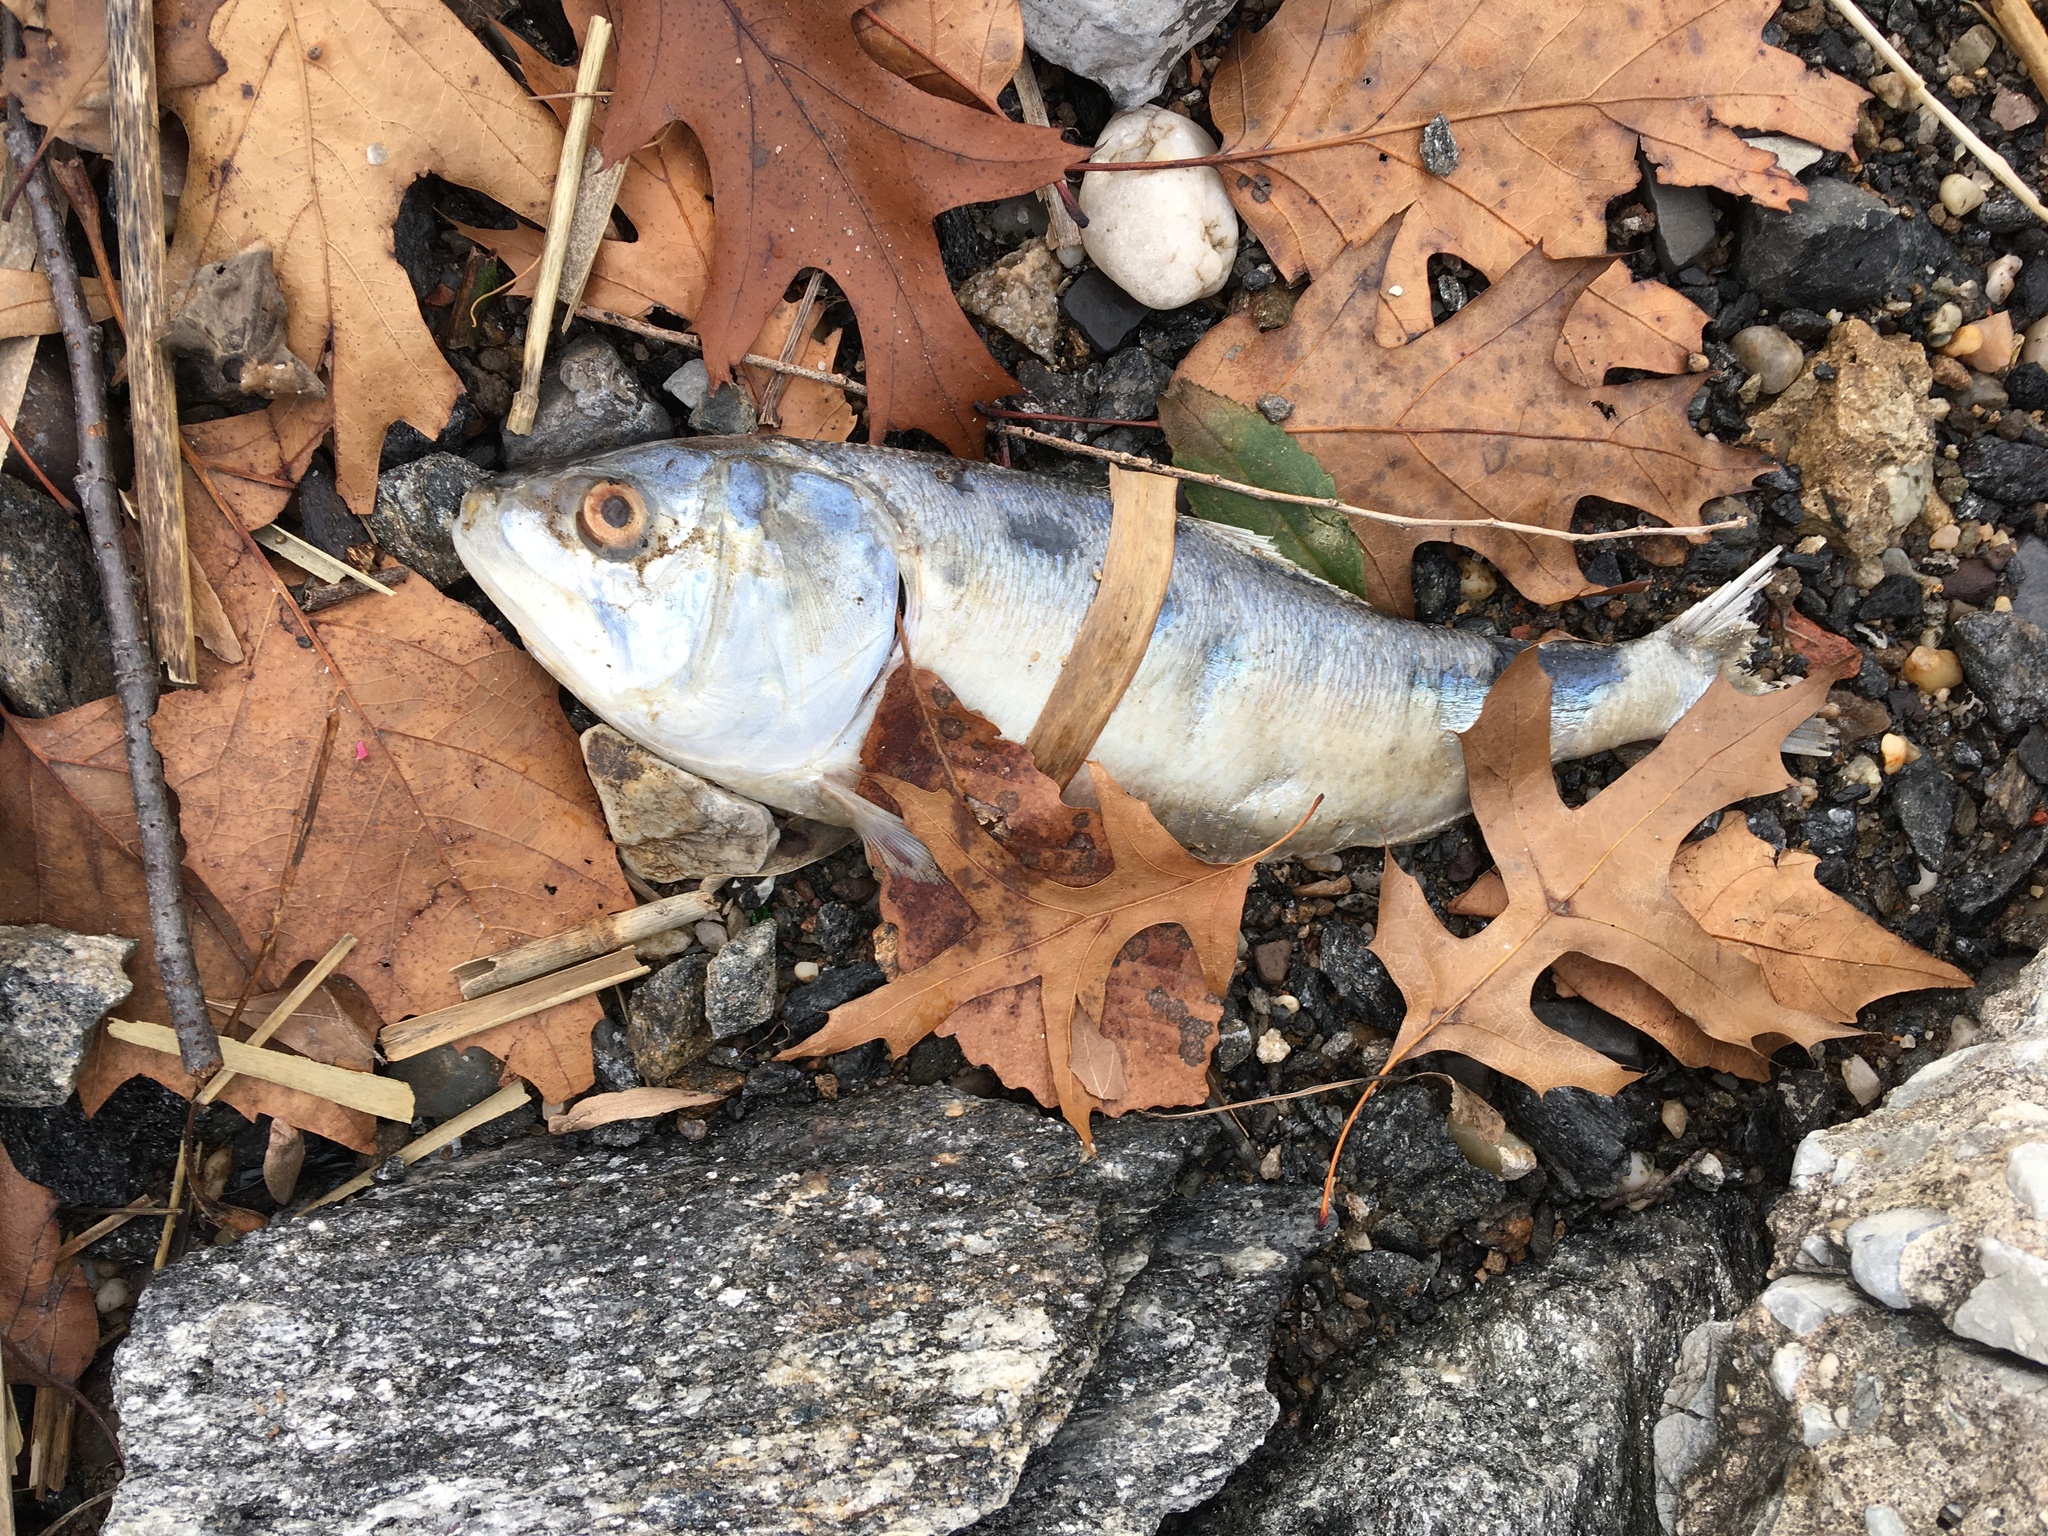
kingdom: Animalia
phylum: Chordata
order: Clupeiformes
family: Clupeidae
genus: Brevoortia
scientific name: Brevoortia tyrannus
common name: Atlantic menhaden
